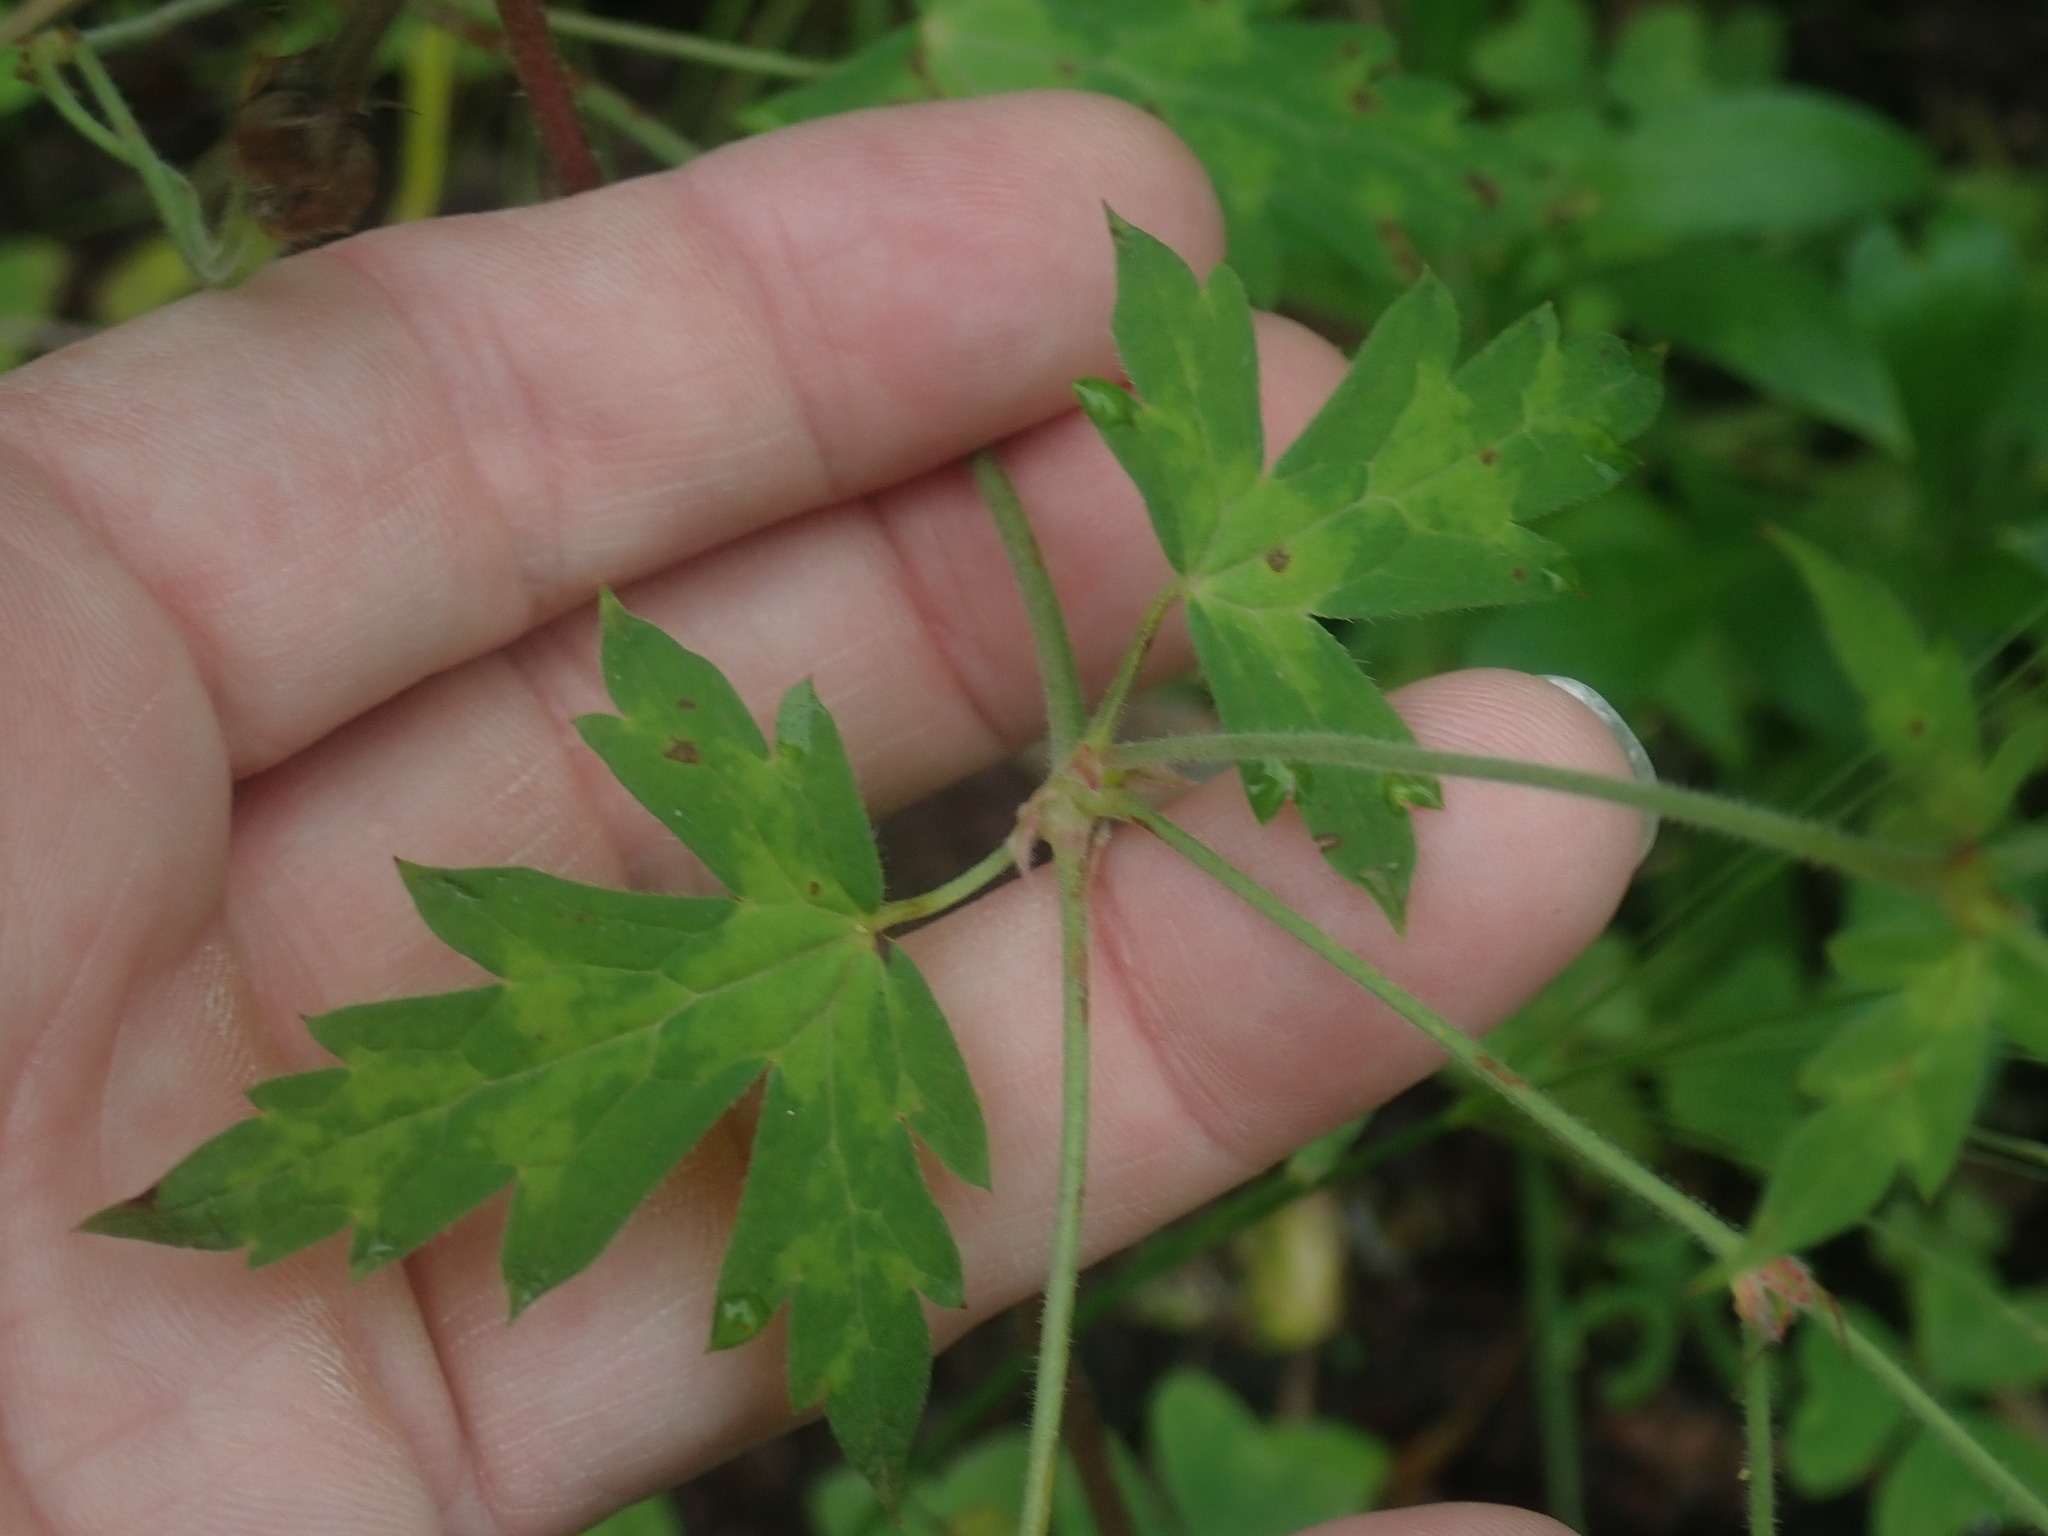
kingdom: Plantae
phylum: Tracheophyta
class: Magnoliopsida
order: Geraniales
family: Geraniaceae
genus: Geranium
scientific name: Geranium richardsonii
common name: Richardson's crane's-bill
